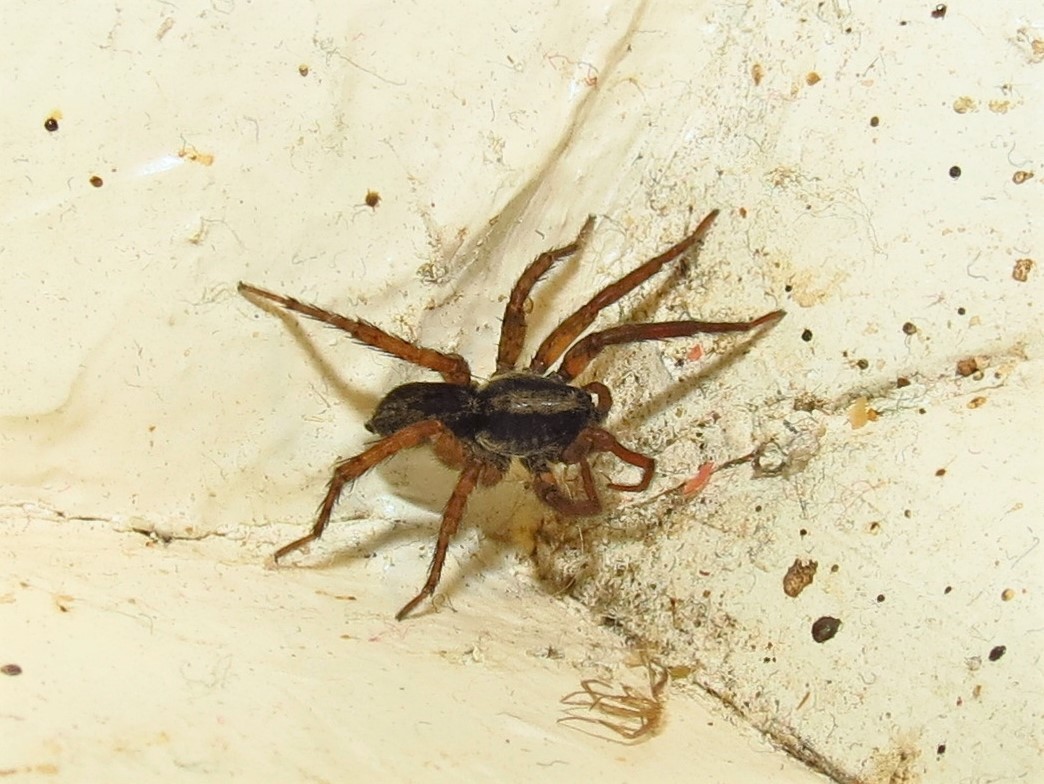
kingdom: Animalia
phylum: Arthropoda
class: Arachnida
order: Araneae
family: Lycosidae
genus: Trochosa
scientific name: Trochosa sepulchralis
